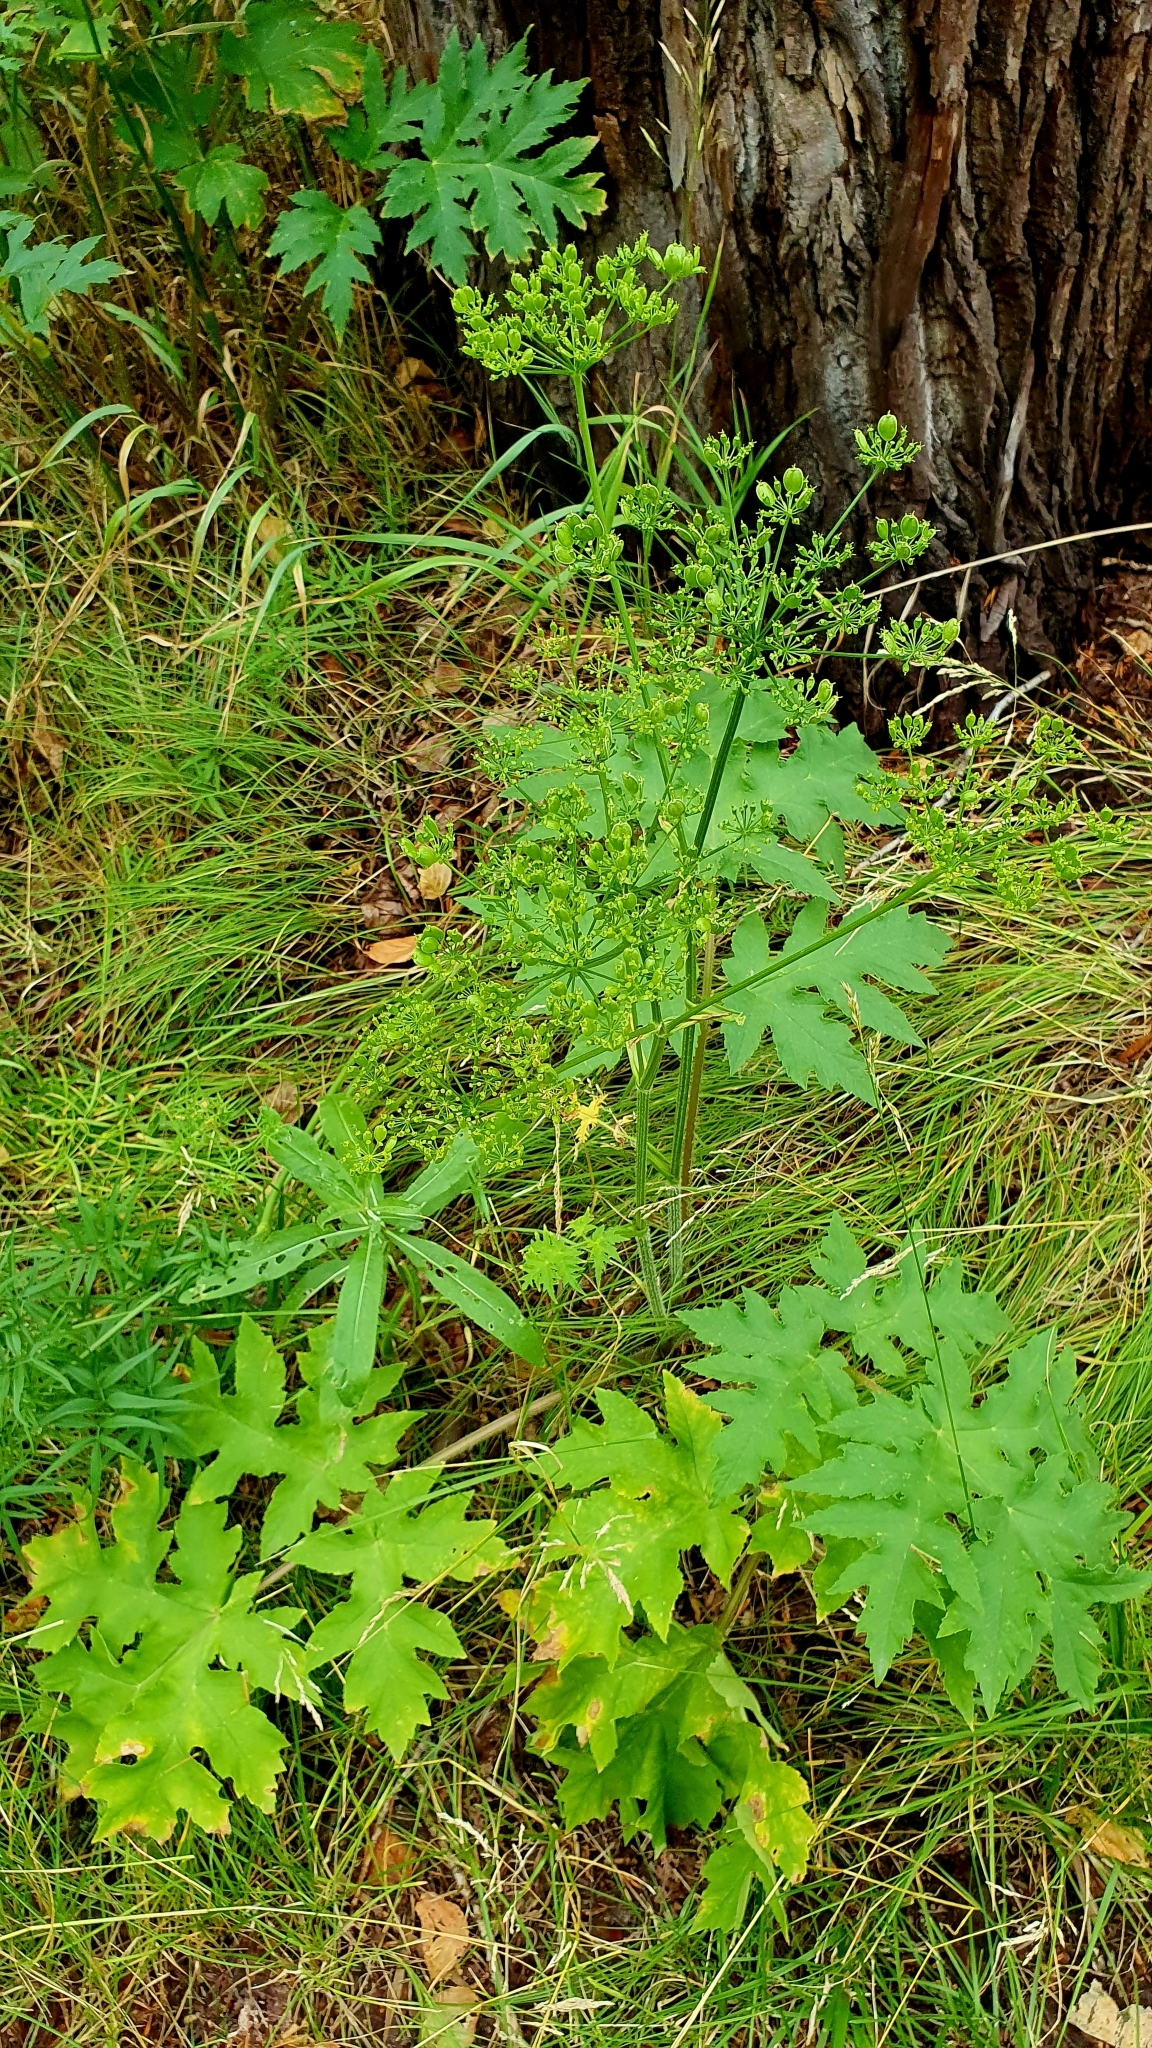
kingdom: Plantae
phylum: Tracheophyta
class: Magnoliopsida
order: Apiales
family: Apiaceae
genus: Heracleum
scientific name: Heracleum sphondylium
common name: Hogweed
